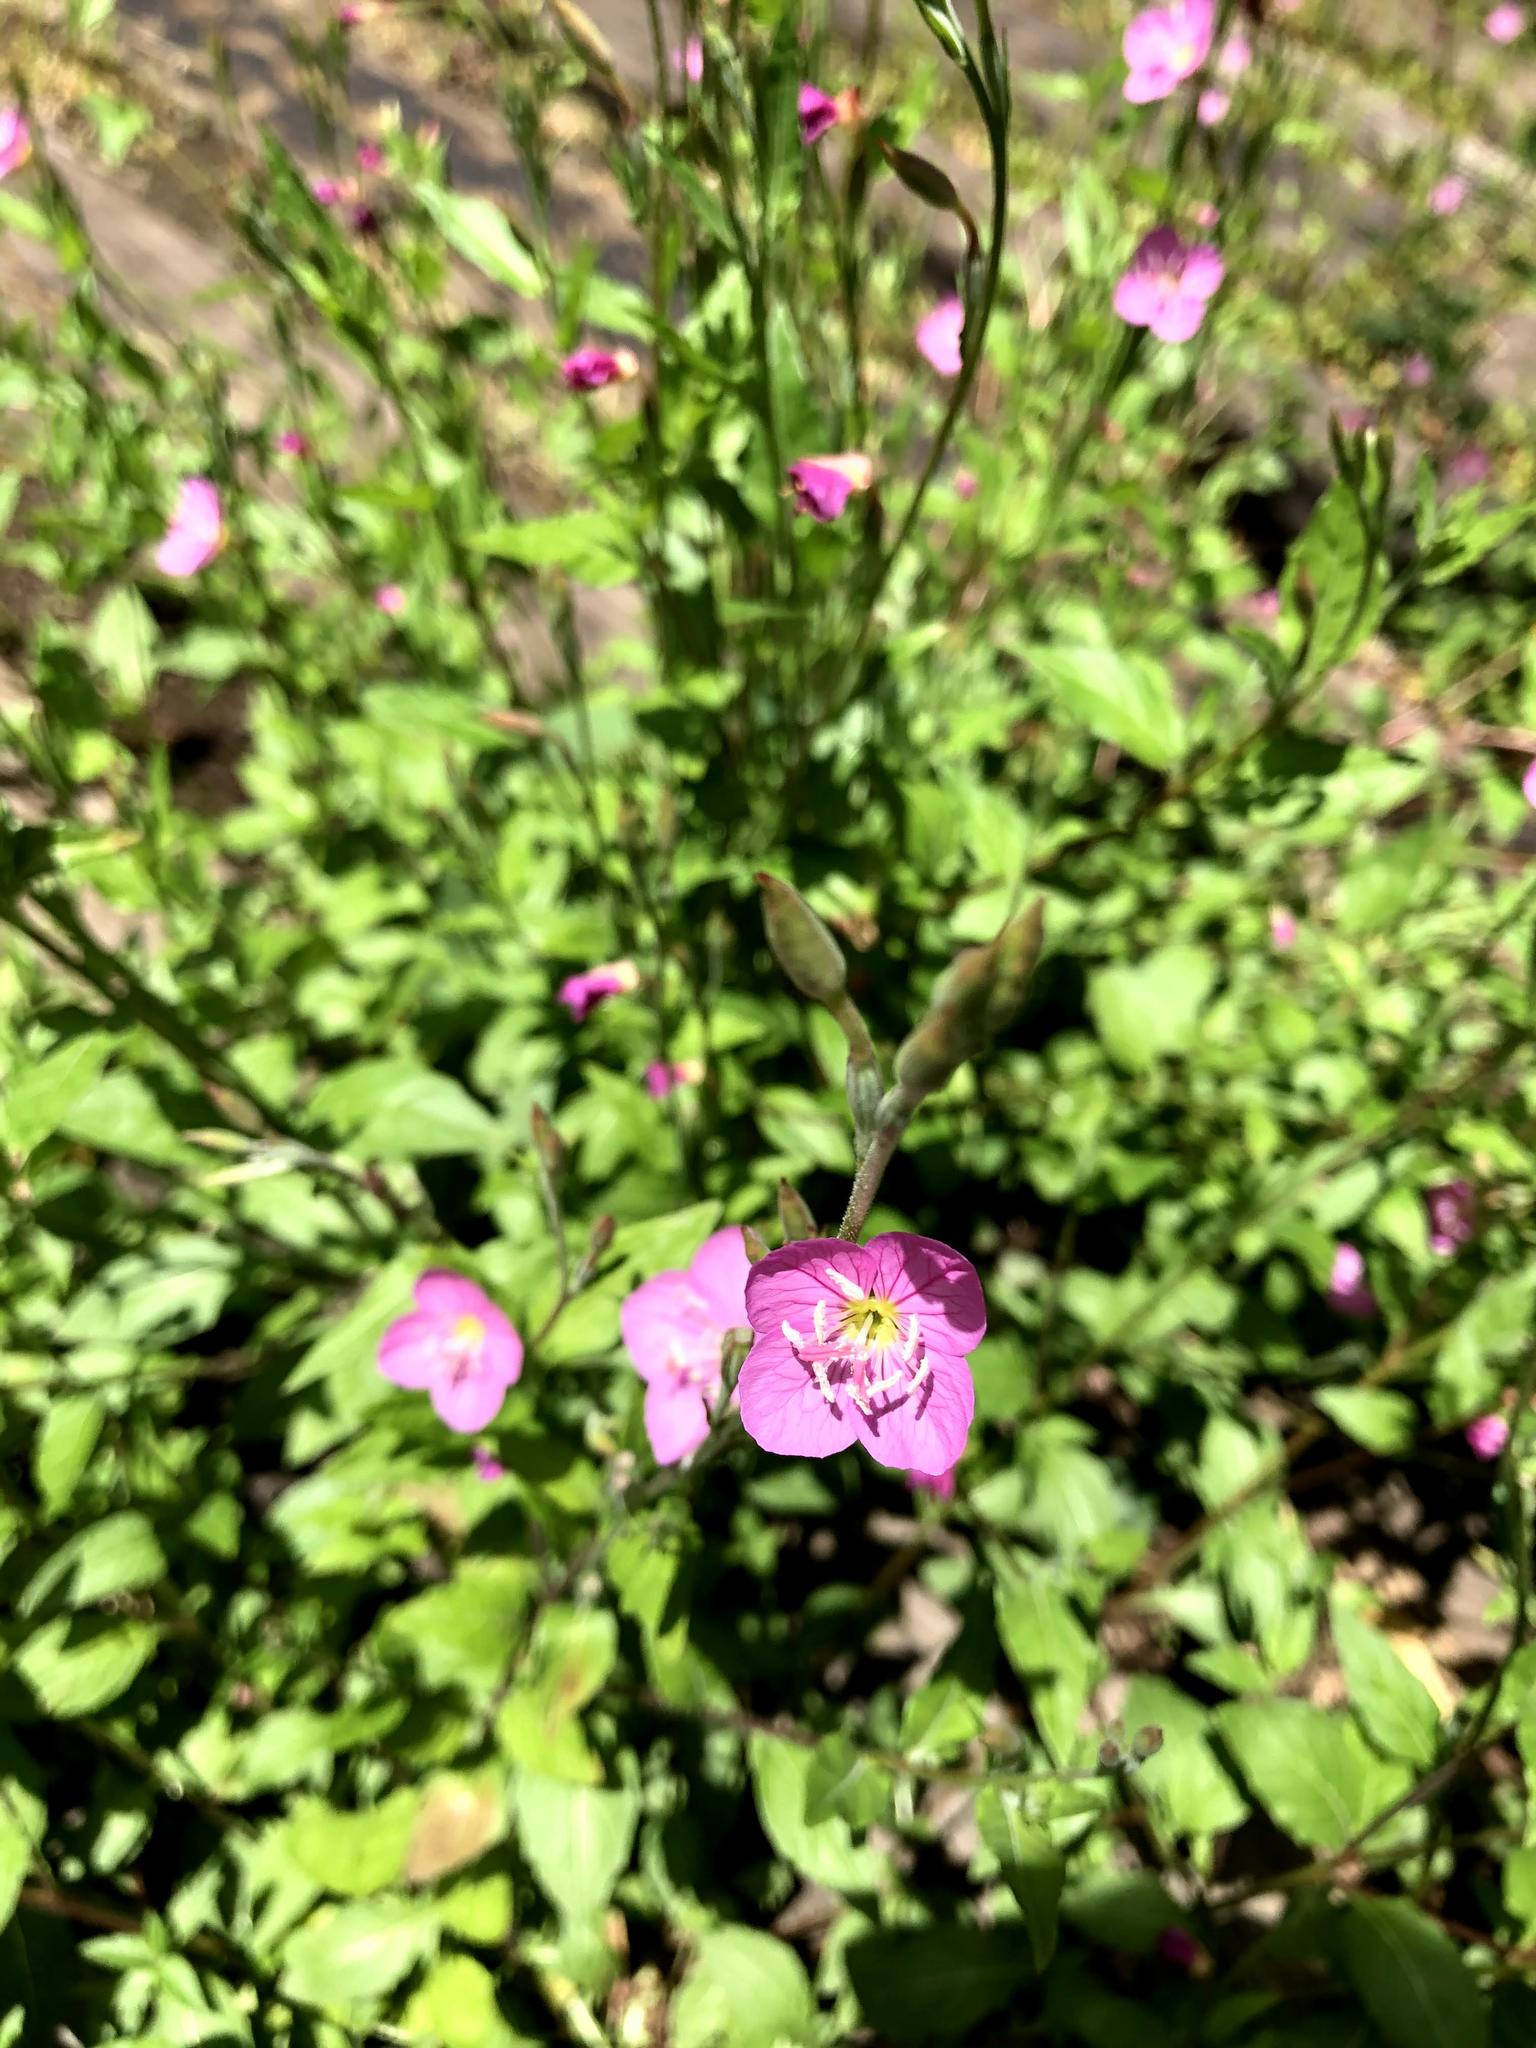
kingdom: Plantae
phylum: Tracheophyta
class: Magnoliopsida
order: Myrtales
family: Onagraceae
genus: Oenothera
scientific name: Oenothera rosea
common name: Rosy evening-primrose
